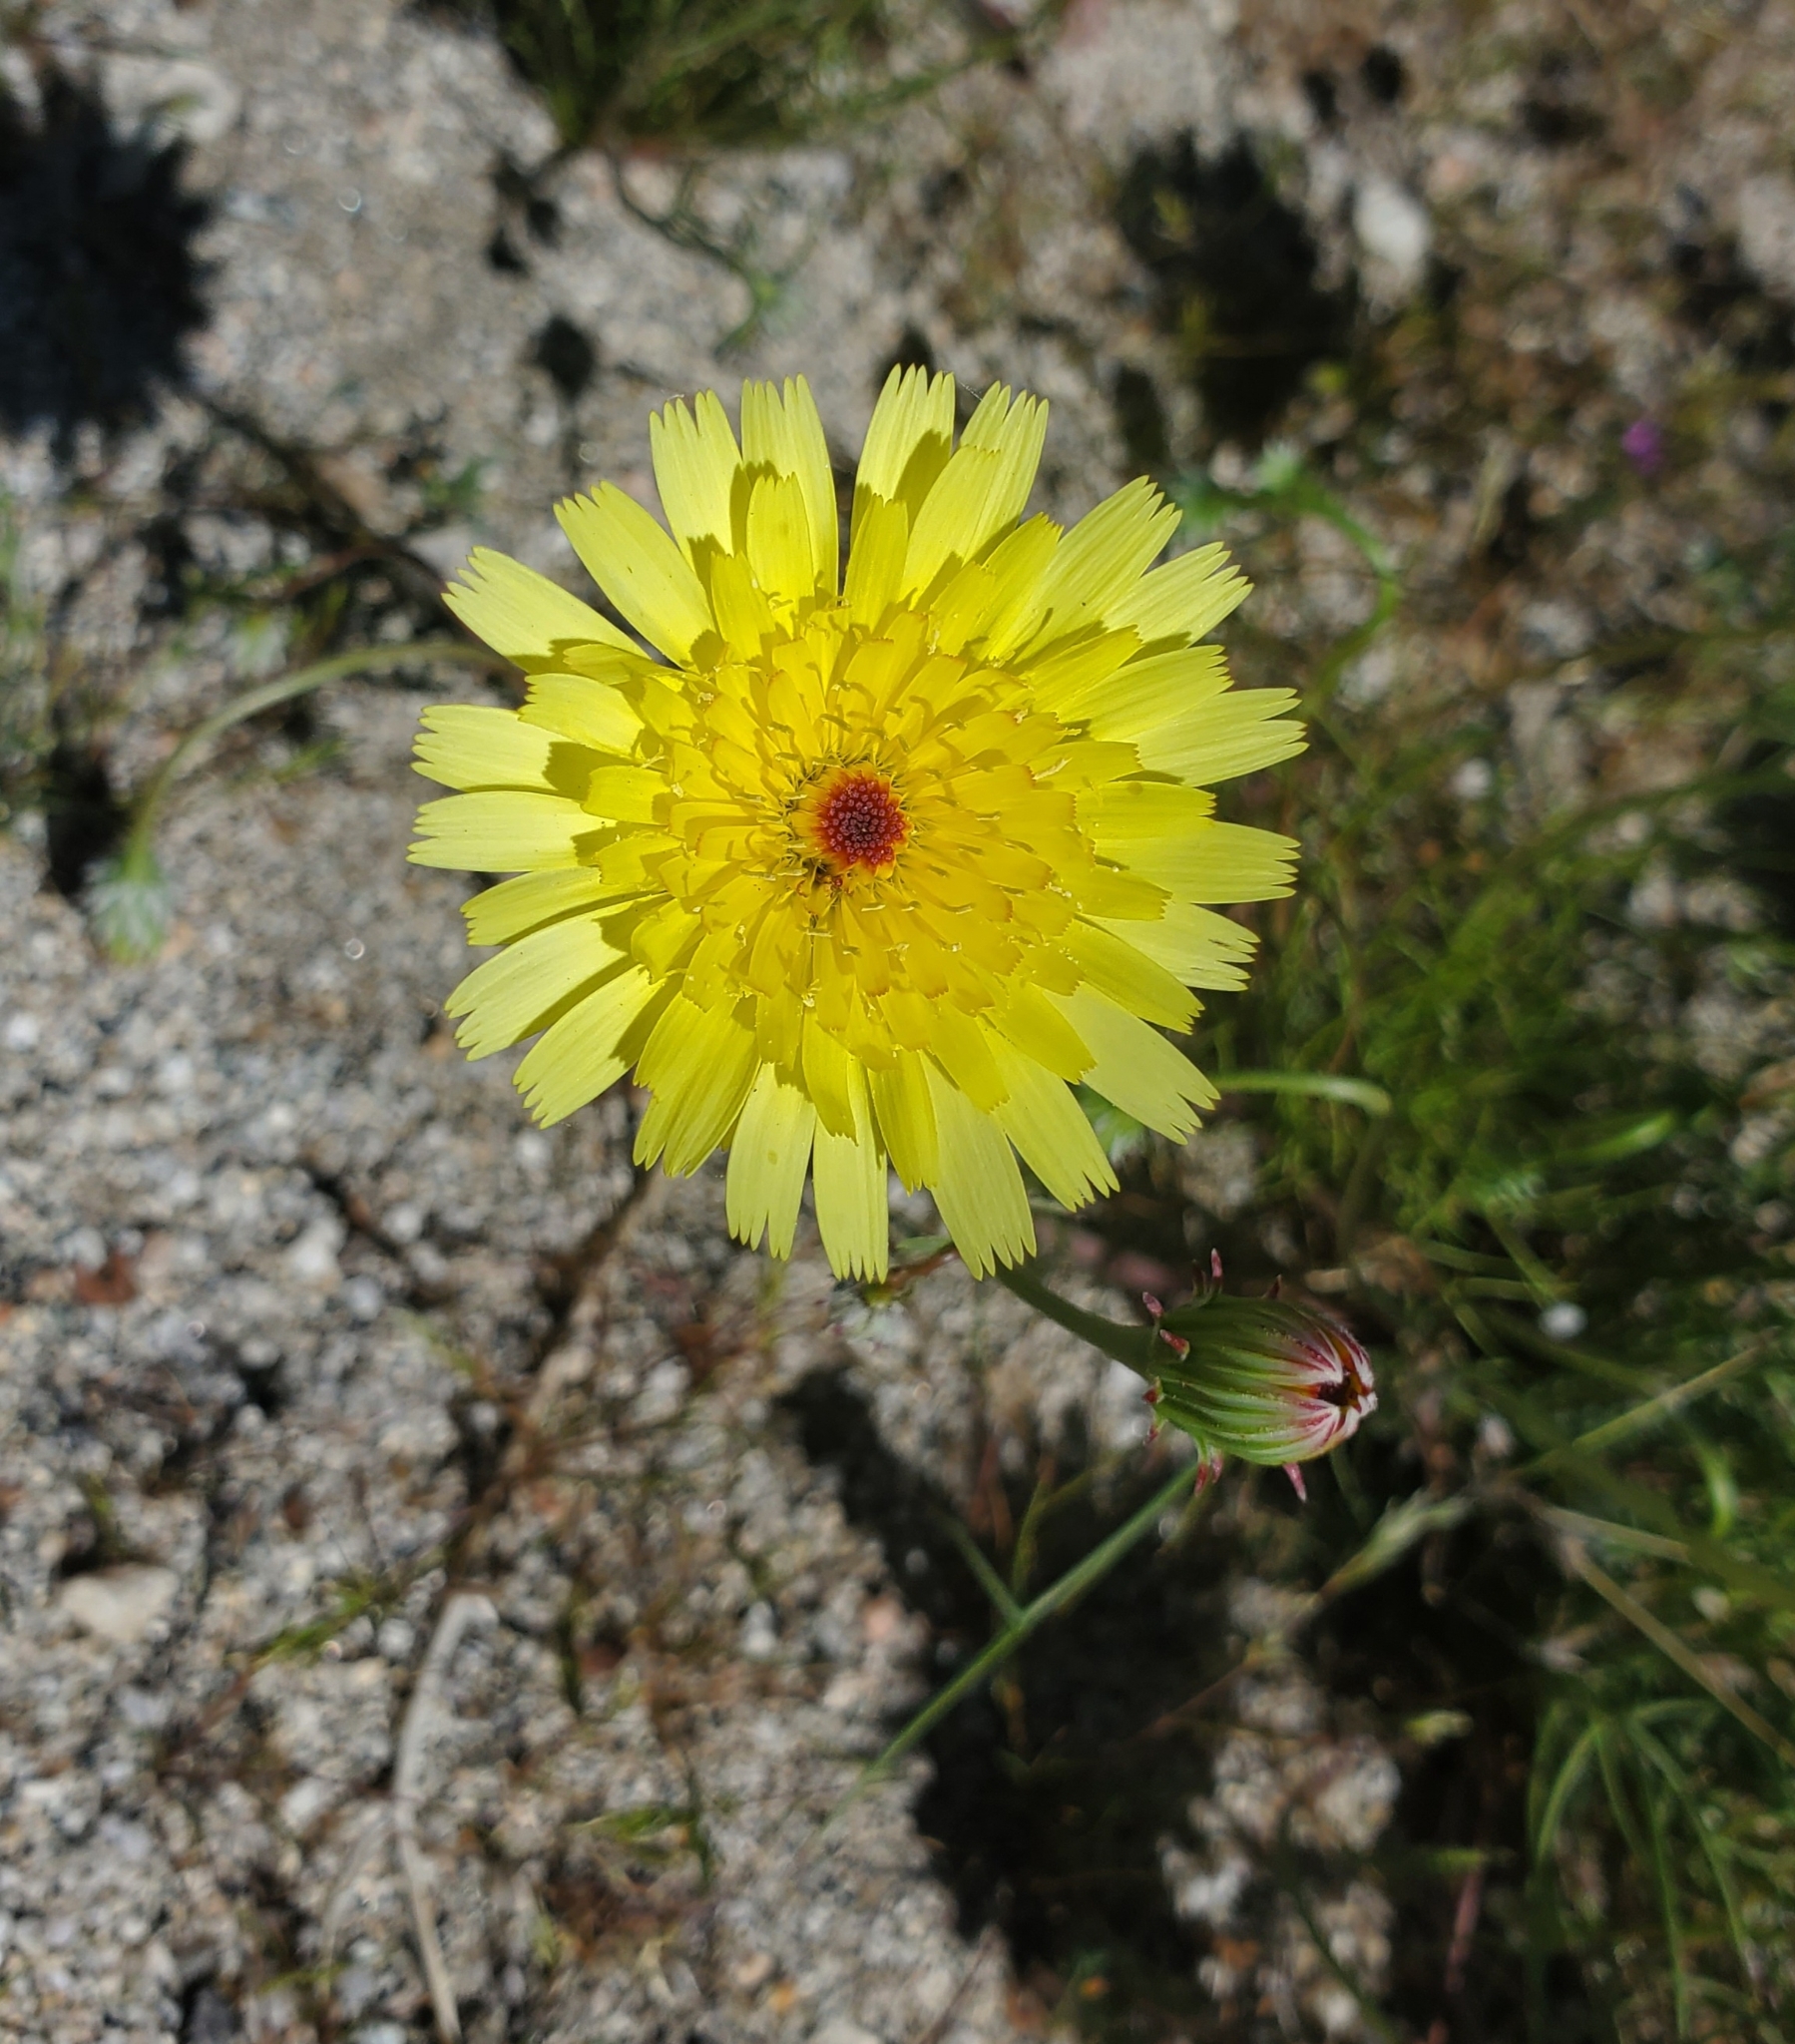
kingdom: Plantae
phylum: Tracheophyta
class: Magnoliopsida
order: Asterales
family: Asteraceae
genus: Malacothrix
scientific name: Malacothrix glabrata
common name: Smooth desert-dandelion
